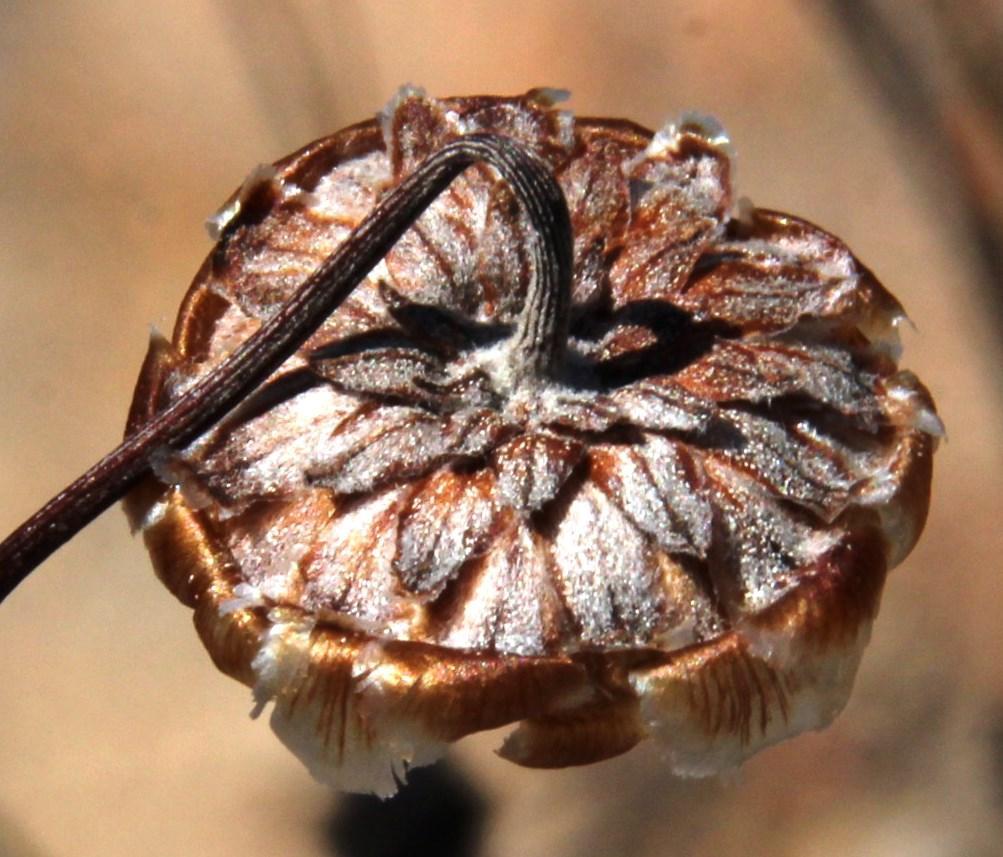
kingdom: Plantae
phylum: Tracheophyta
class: Magnoliopsida
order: Asterales
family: Asteraceae
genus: Ursinia
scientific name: Ursinia sericea
